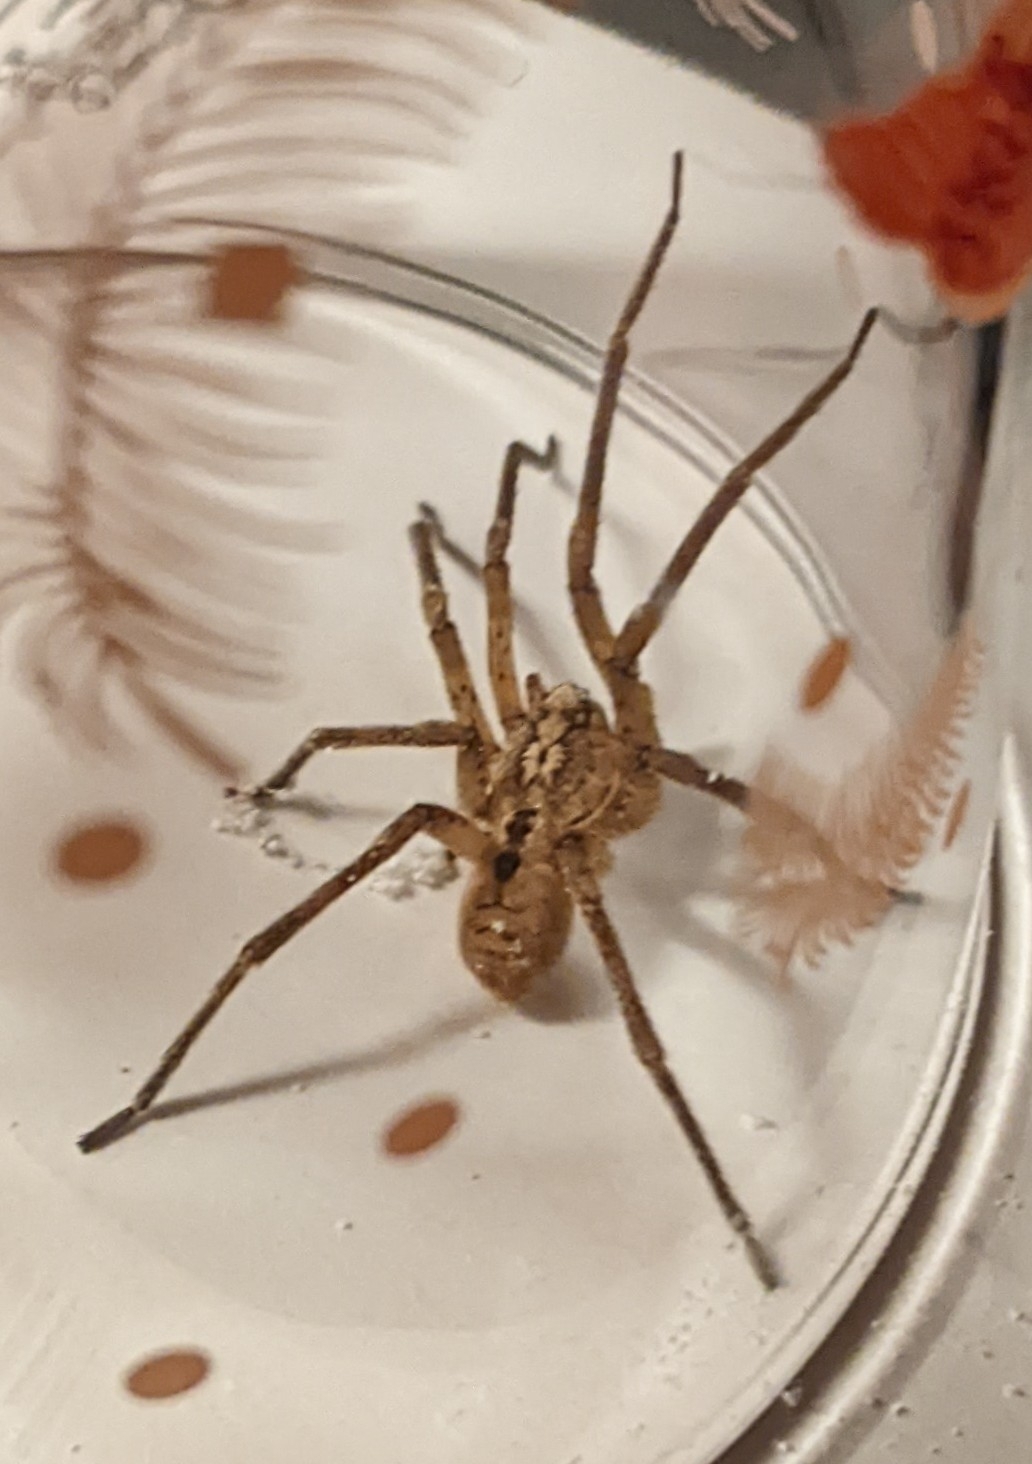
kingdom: Animalia
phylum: Arthropoda
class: Arachnida
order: Araneae
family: Zoropsidae
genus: Zoropsis
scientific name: Zoropsis spinimana
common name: Zoropsid spider
